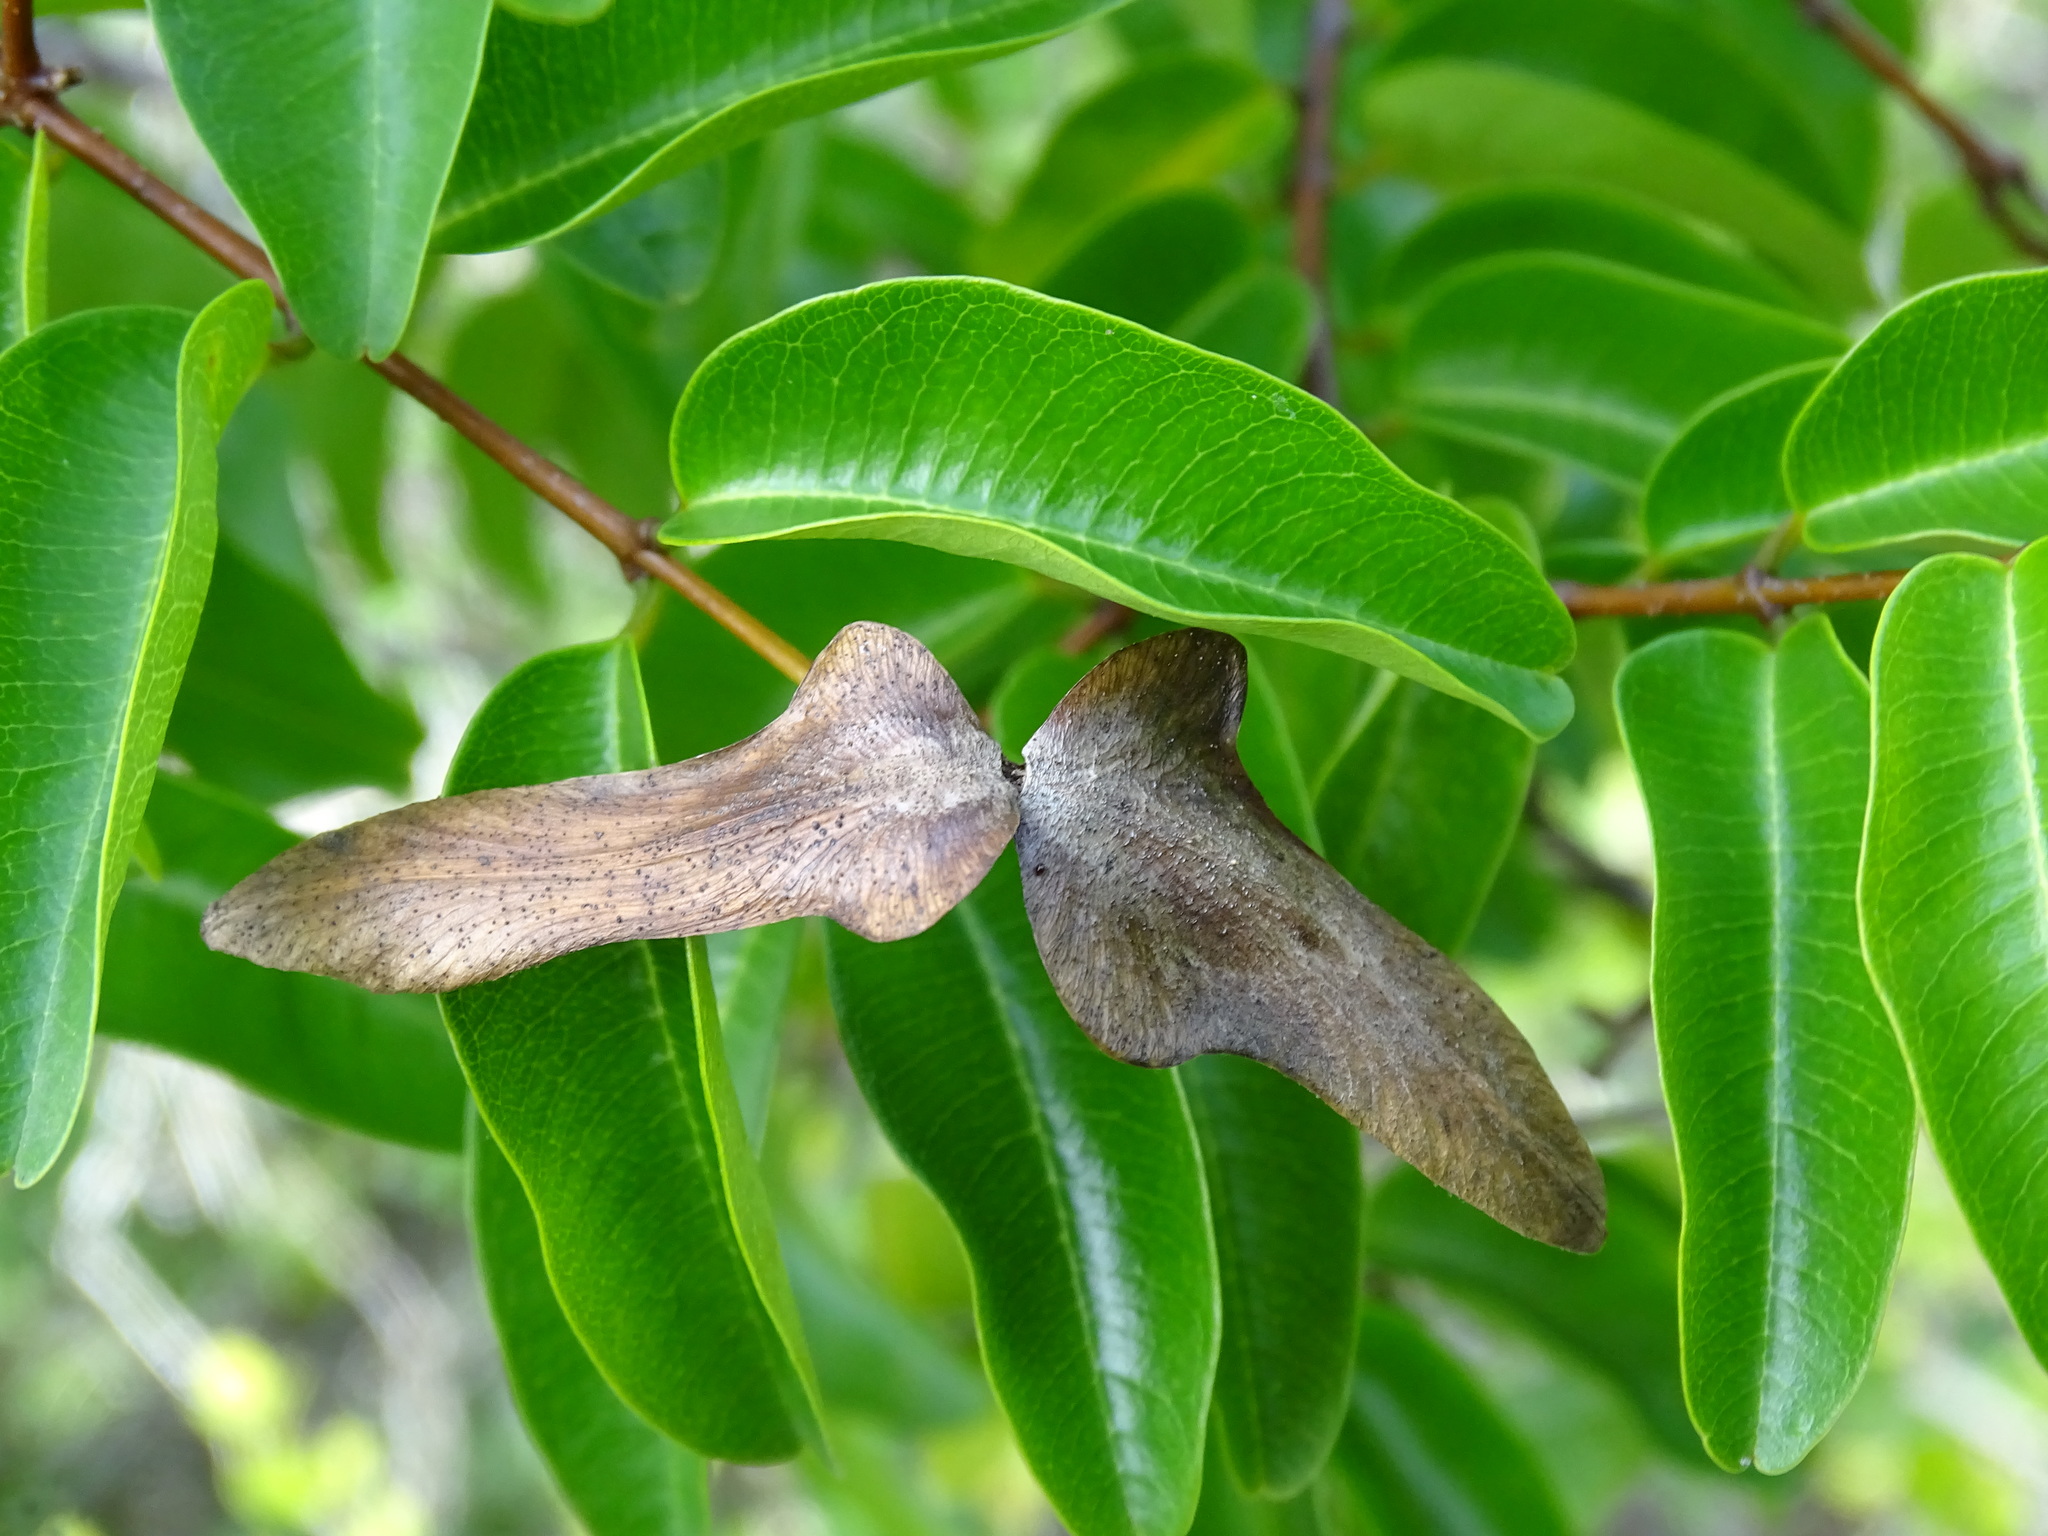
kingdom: Plantae
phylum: Tracheophyta
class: Magnoliopsida
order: Gentianales
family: Apocynaceae
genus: Cameraria
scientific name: Cameraria latifolia
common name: Savanna white poisonwood
